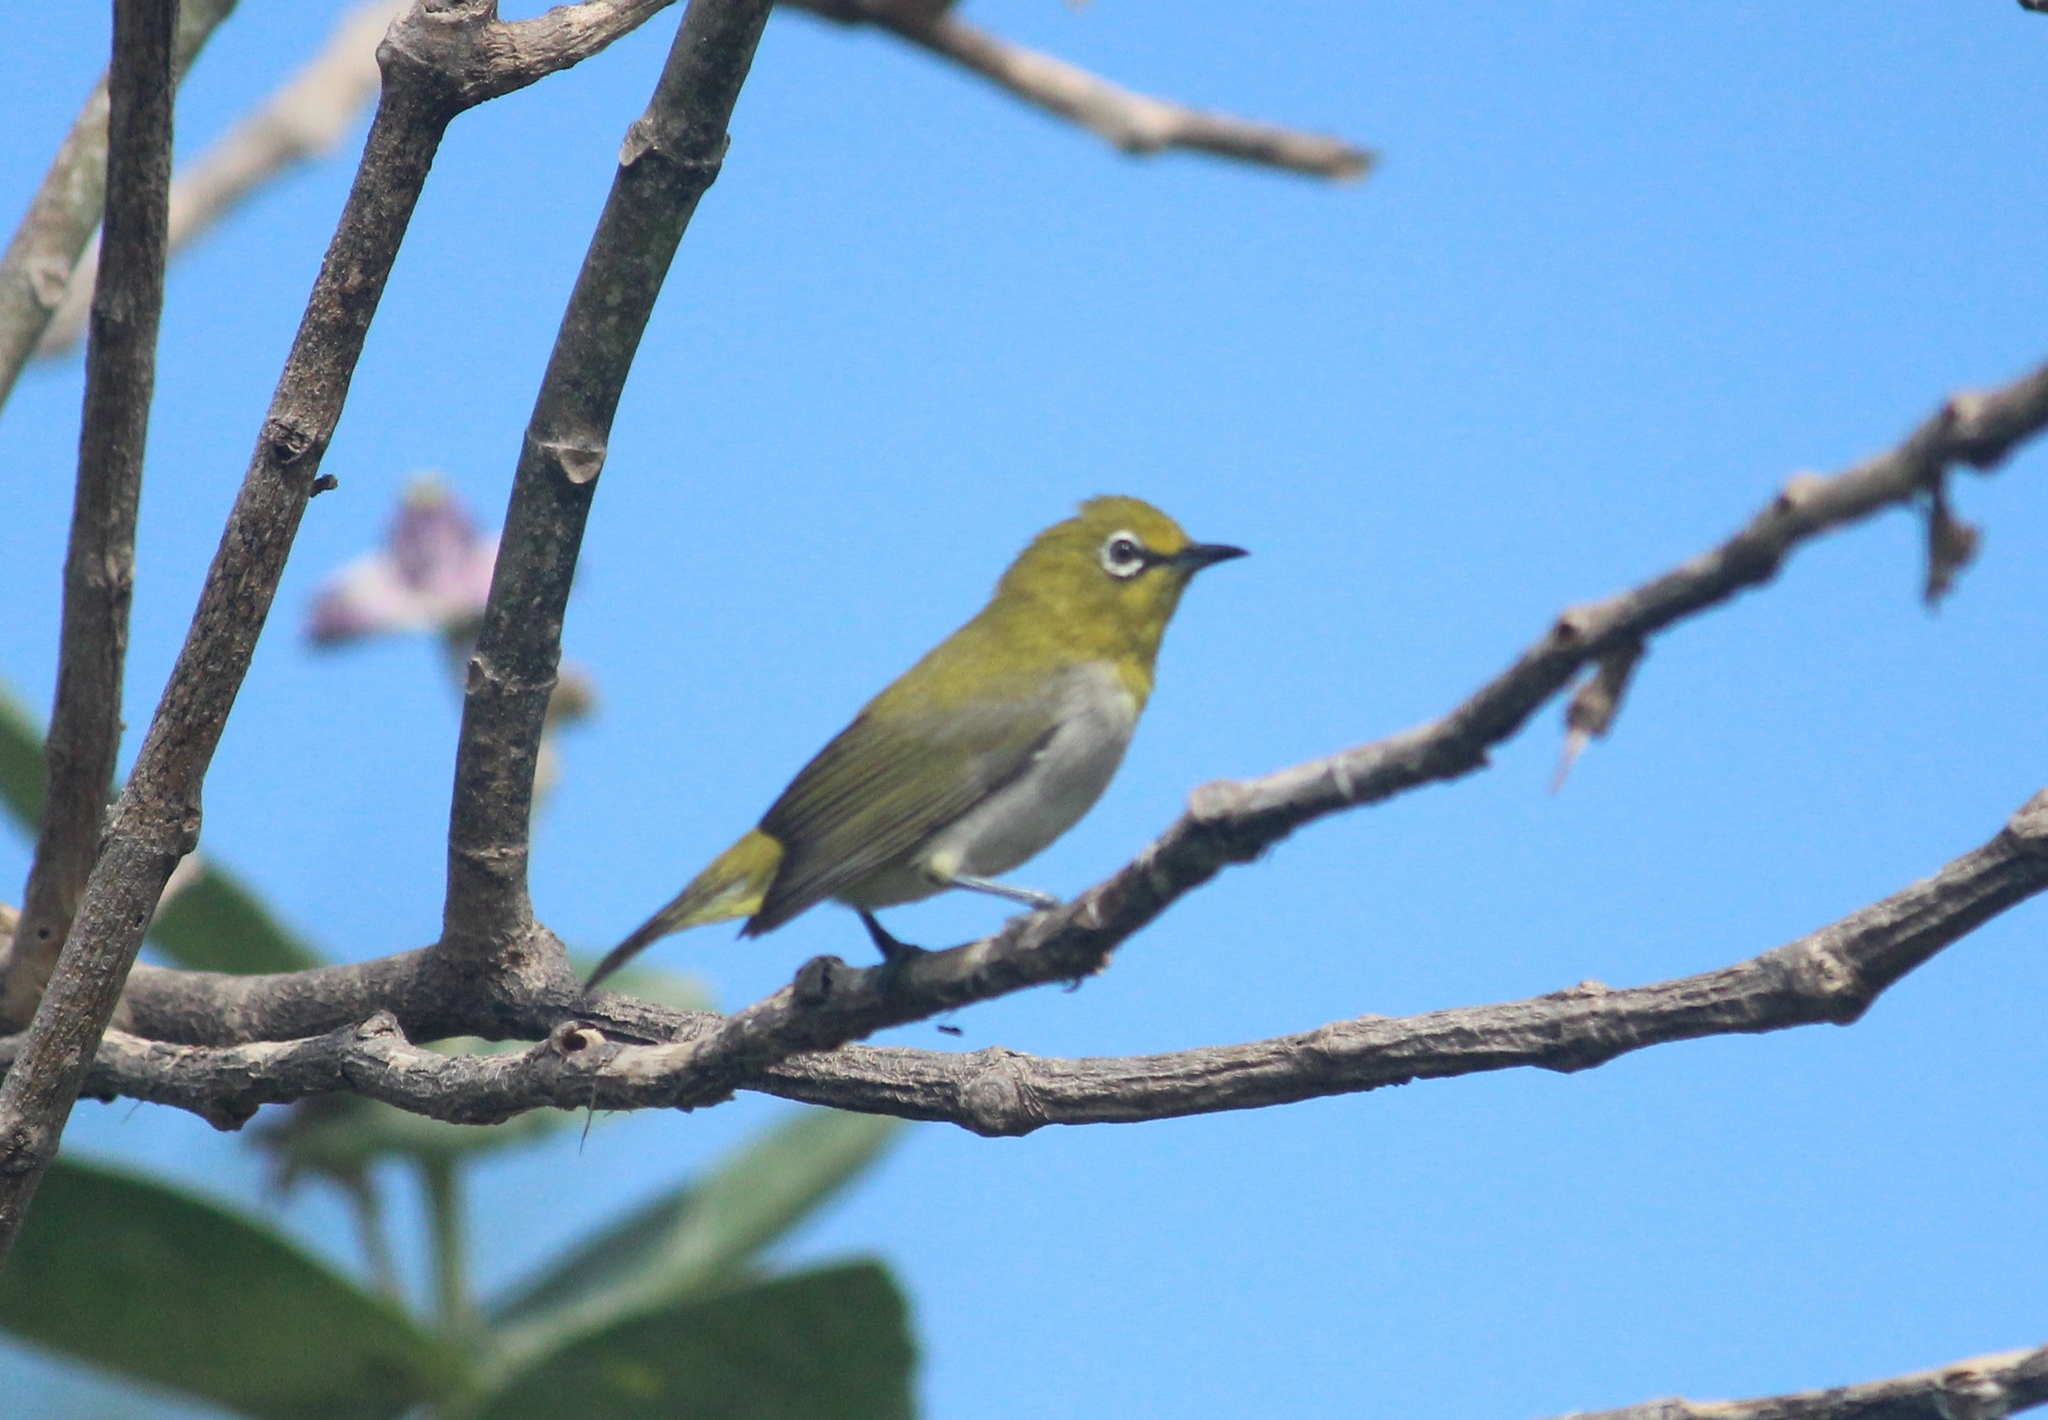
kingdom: Animalia
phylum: Chordata
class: Aves
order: Passeriformes
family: Zosteropidae
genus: Zosterops
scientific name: Zosterops palpebrosus
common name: Oriental white-eye
